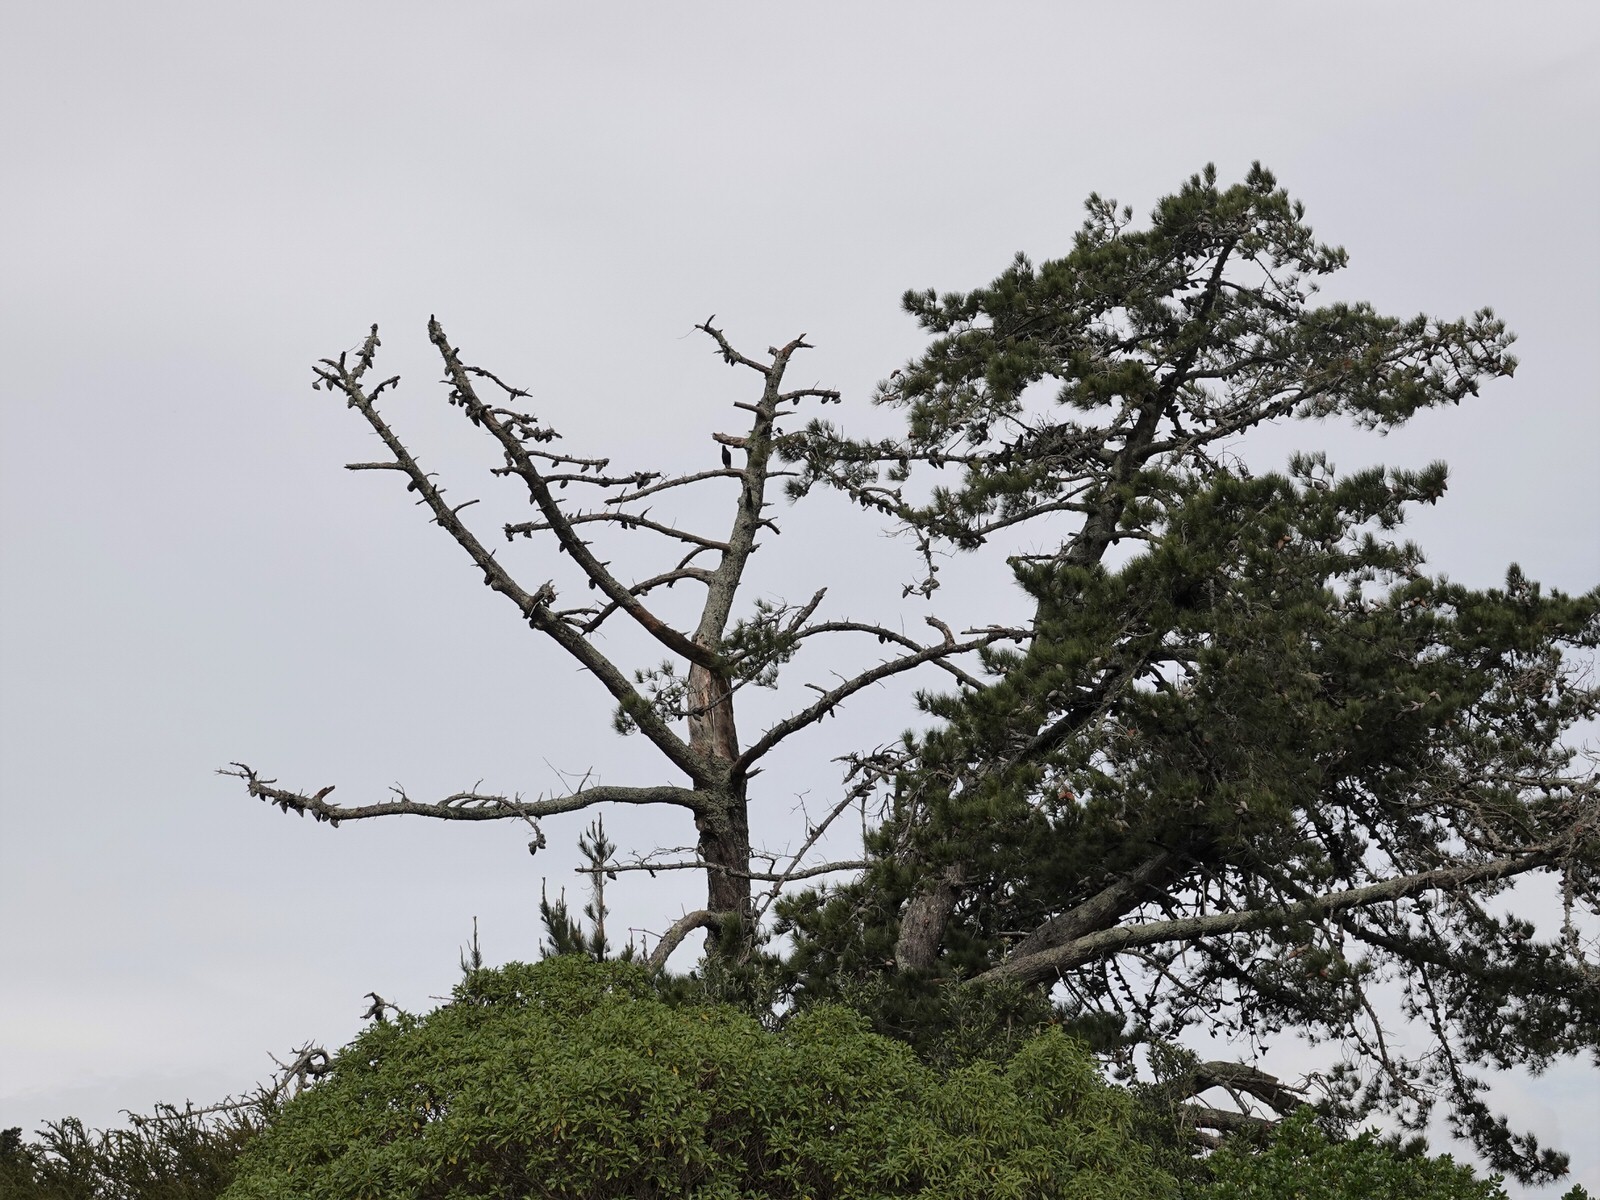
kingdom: Animalia
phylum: Chordata
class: Aves
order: Passeriformes
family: Cracticidae
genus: Gymnorhina
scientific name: Gymnorhina tibicen
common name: Australian magpie
